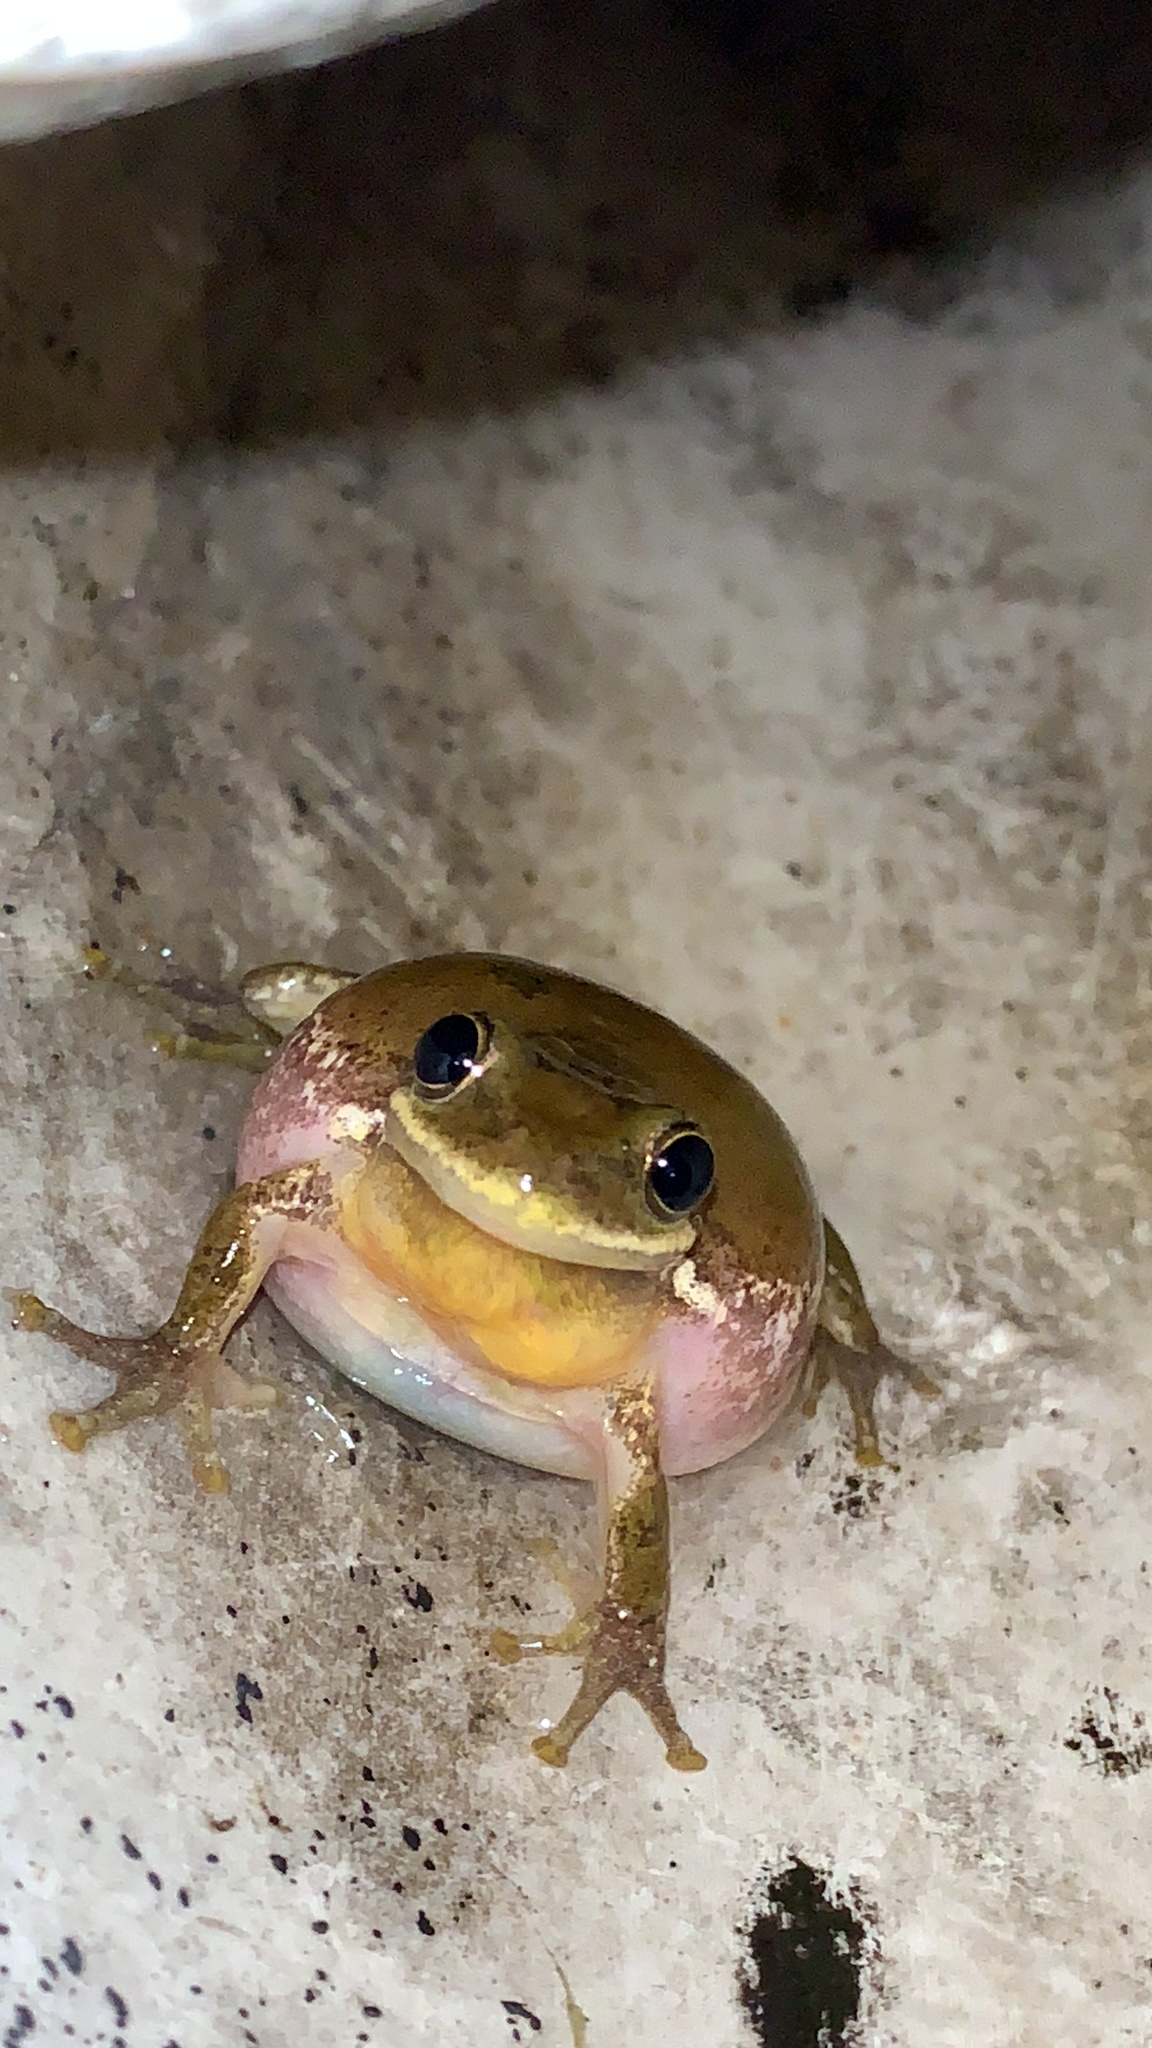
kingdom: Animalia
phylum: Chordata
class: Amphibia
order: Anura
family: Hylidae
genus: Dryophytes
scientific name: Dryophytes squirellus
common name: Squirrel treefrog
